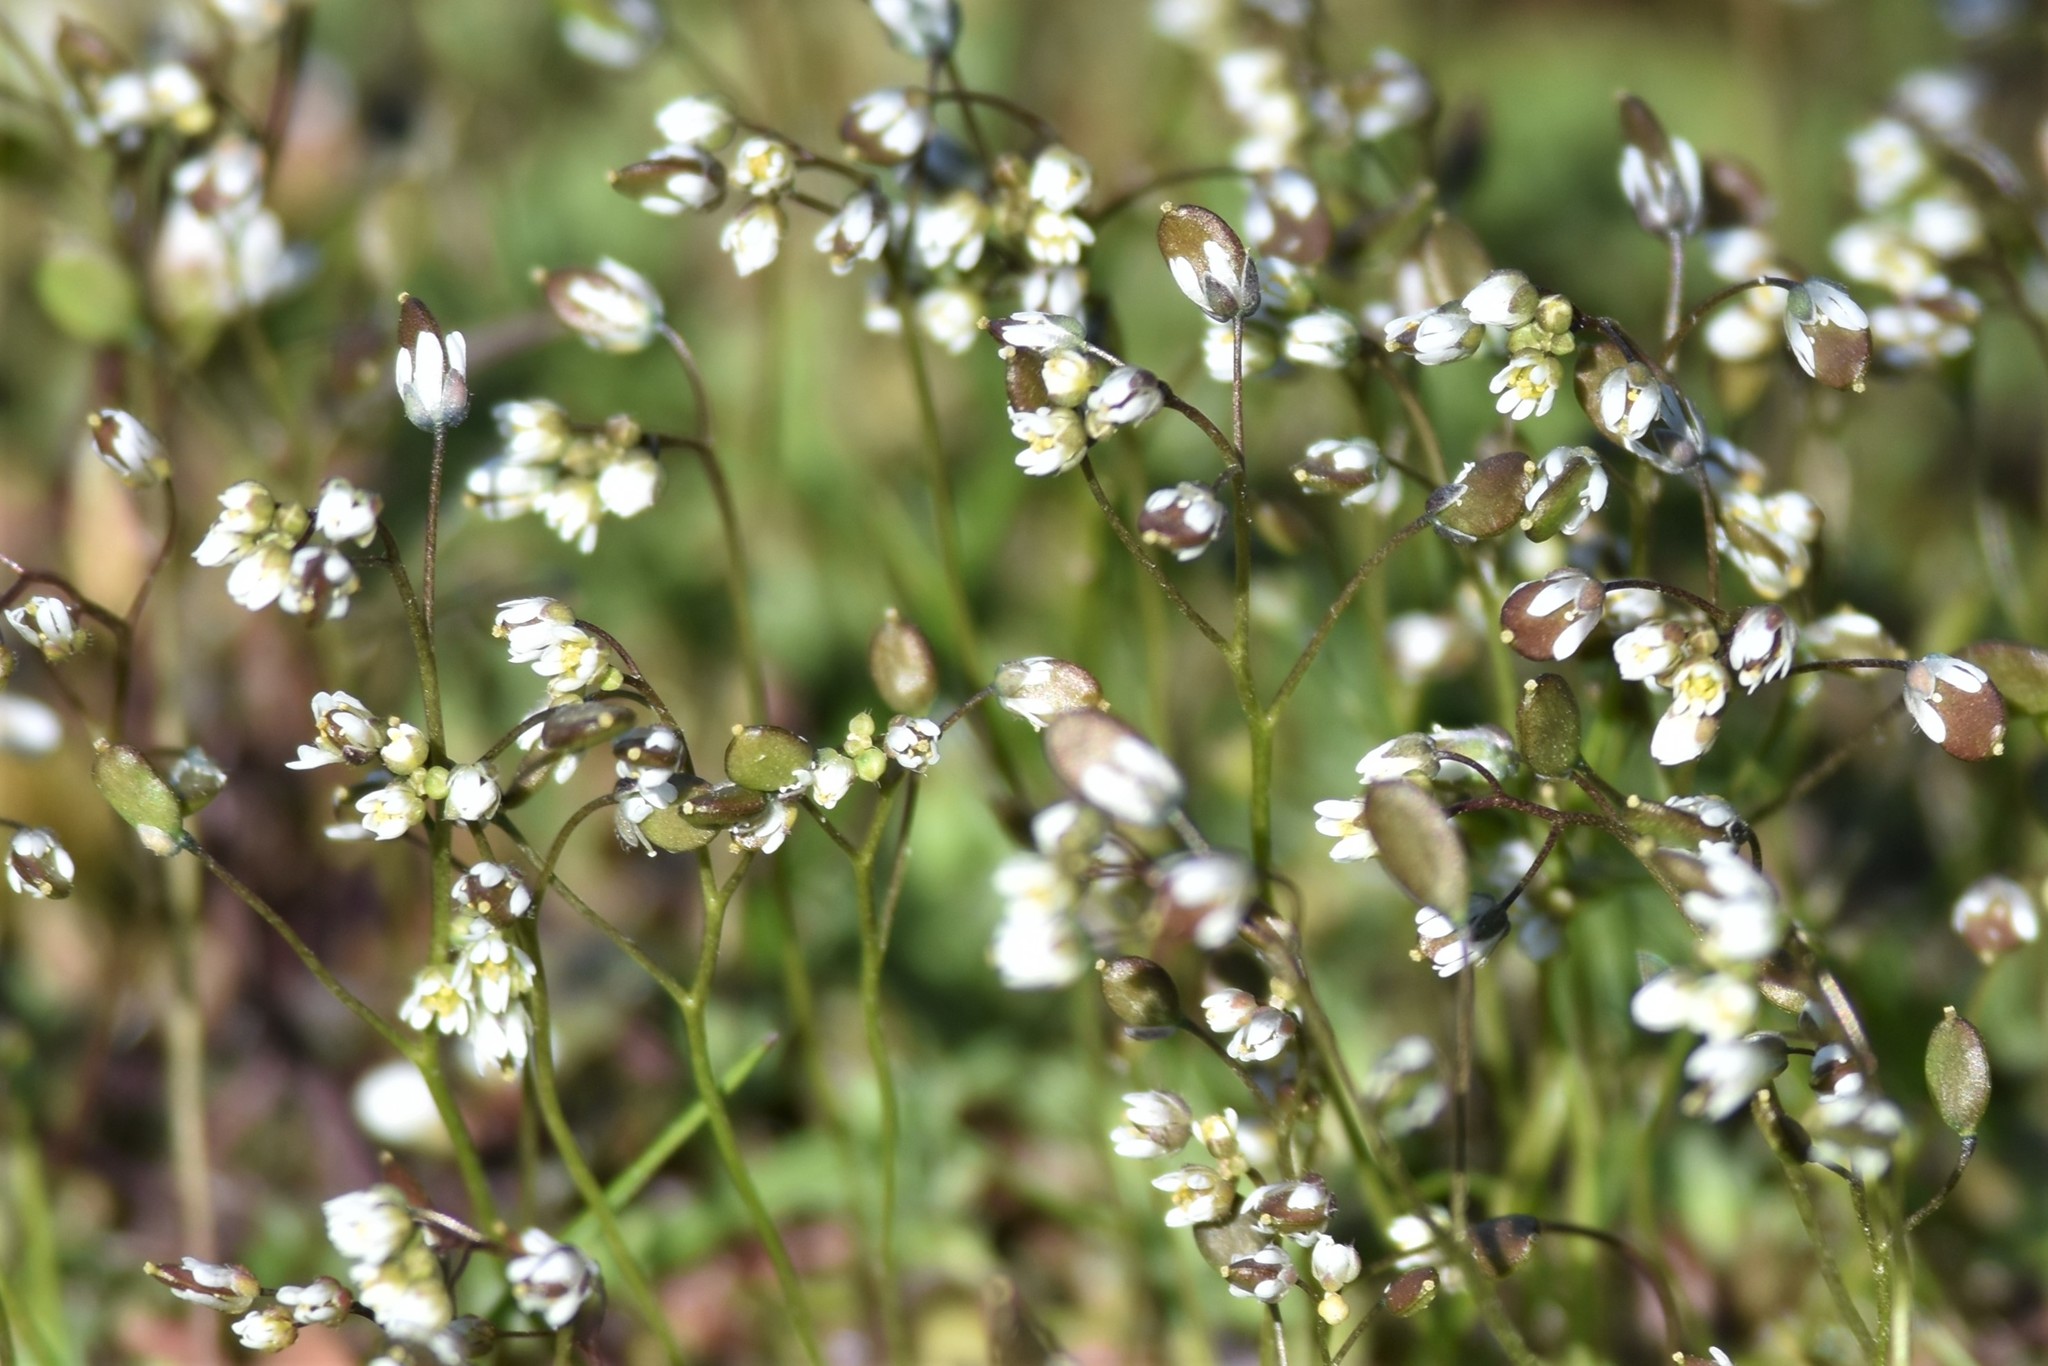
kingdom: Plantae
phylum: Tracheophyta
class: Magnoliopsida
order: Brassicales
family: Brassicaceae
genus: Draba
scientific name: Draba verna
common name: Spring draba
